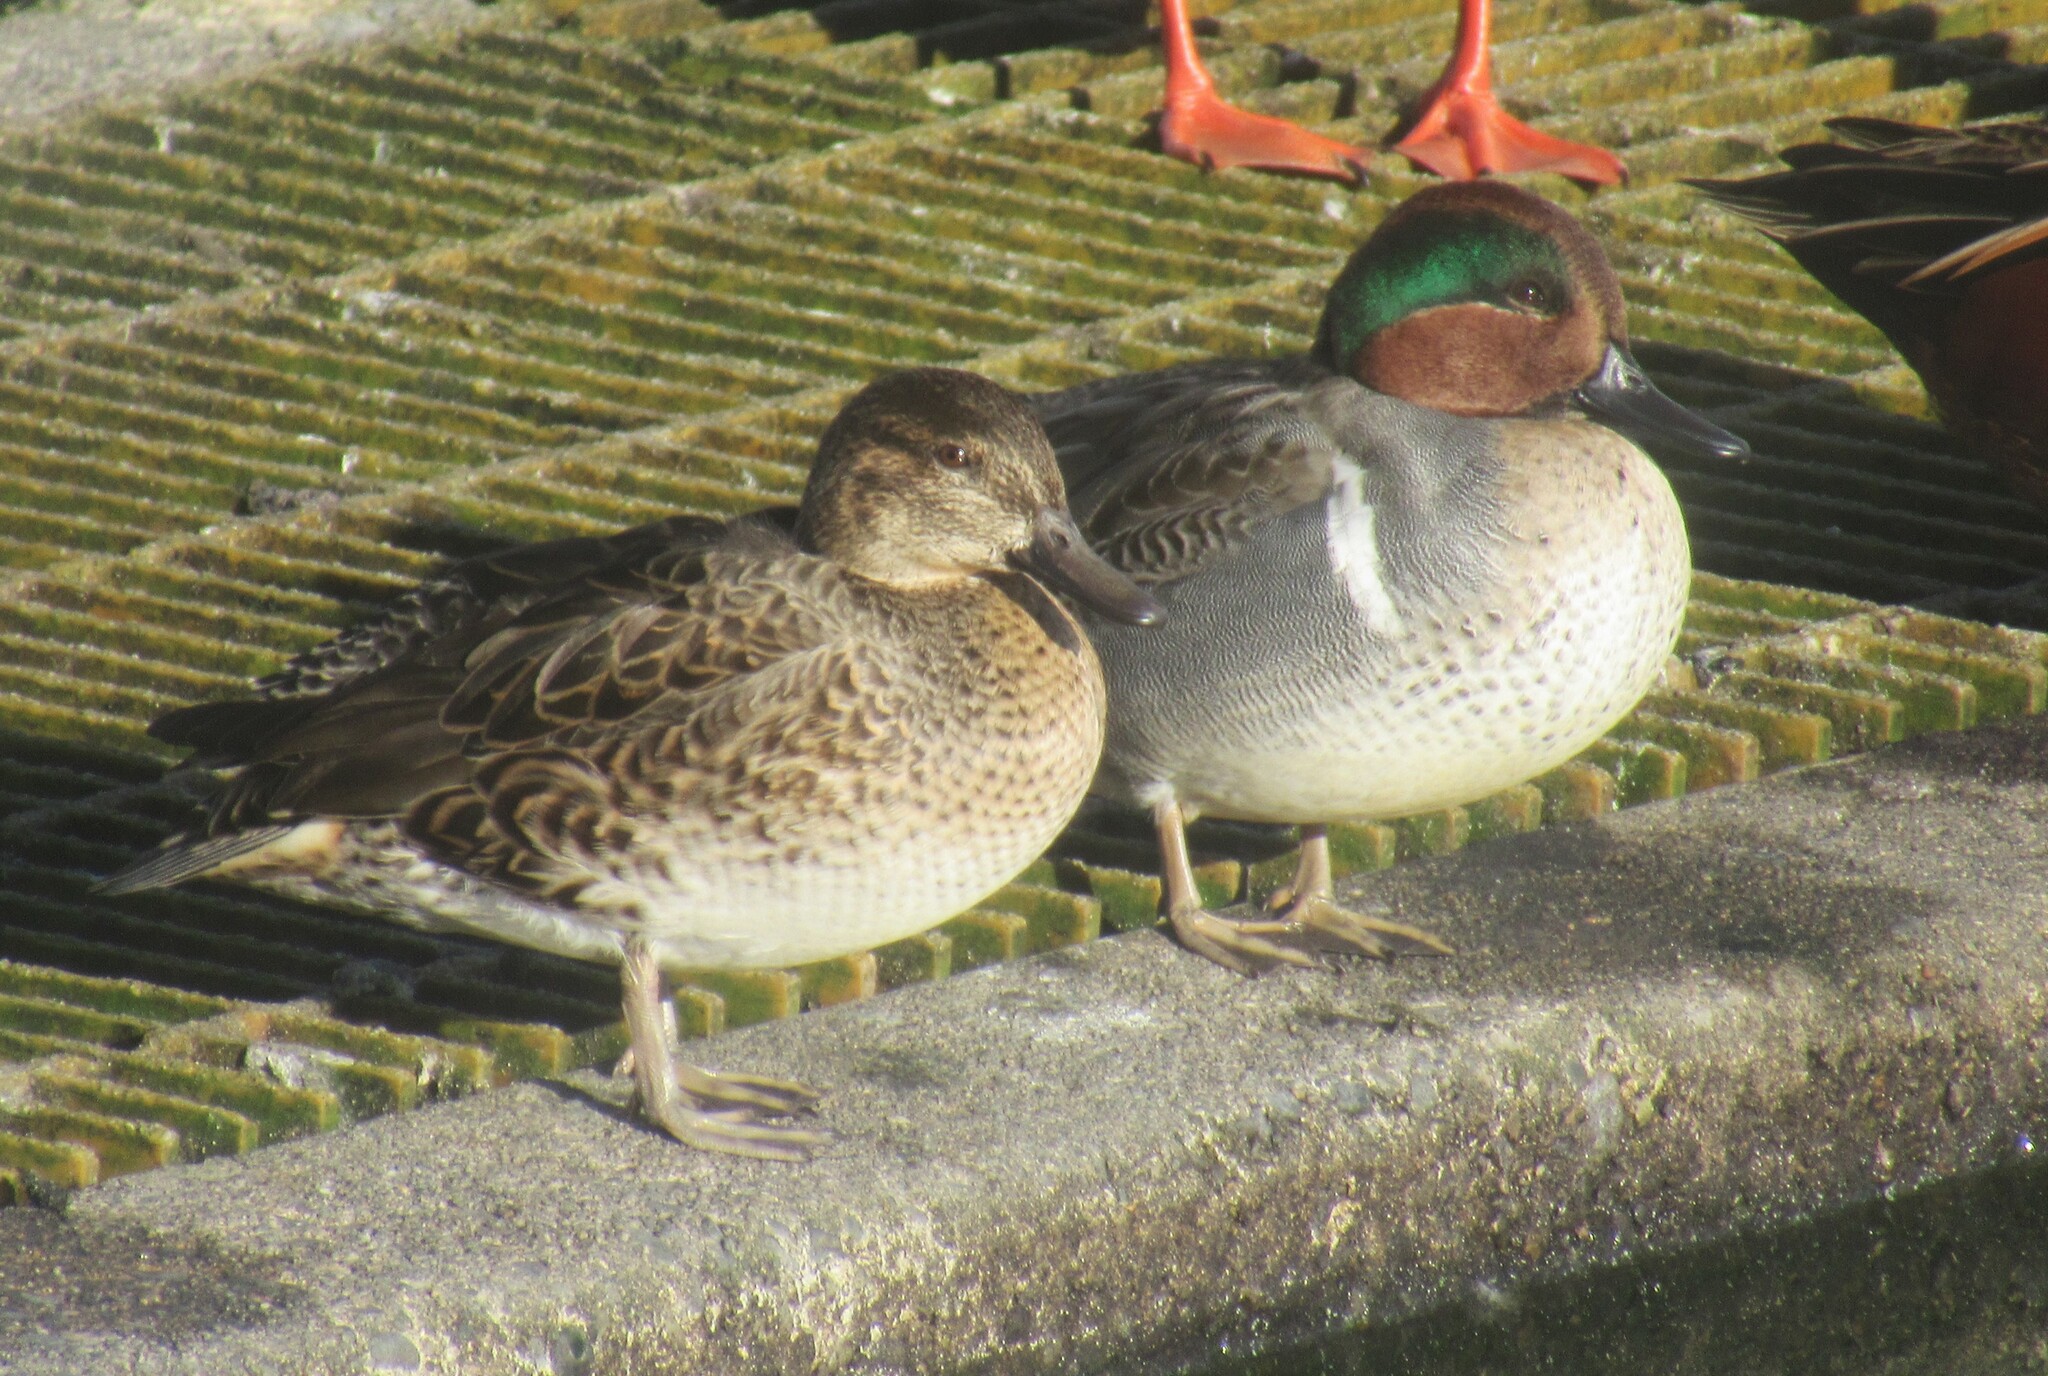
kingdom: Animalia
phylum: Chordata
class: Aves
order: Anseriformes
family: Anatidae
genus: Anas
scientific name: Anas crecca
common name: Eurasian teal
